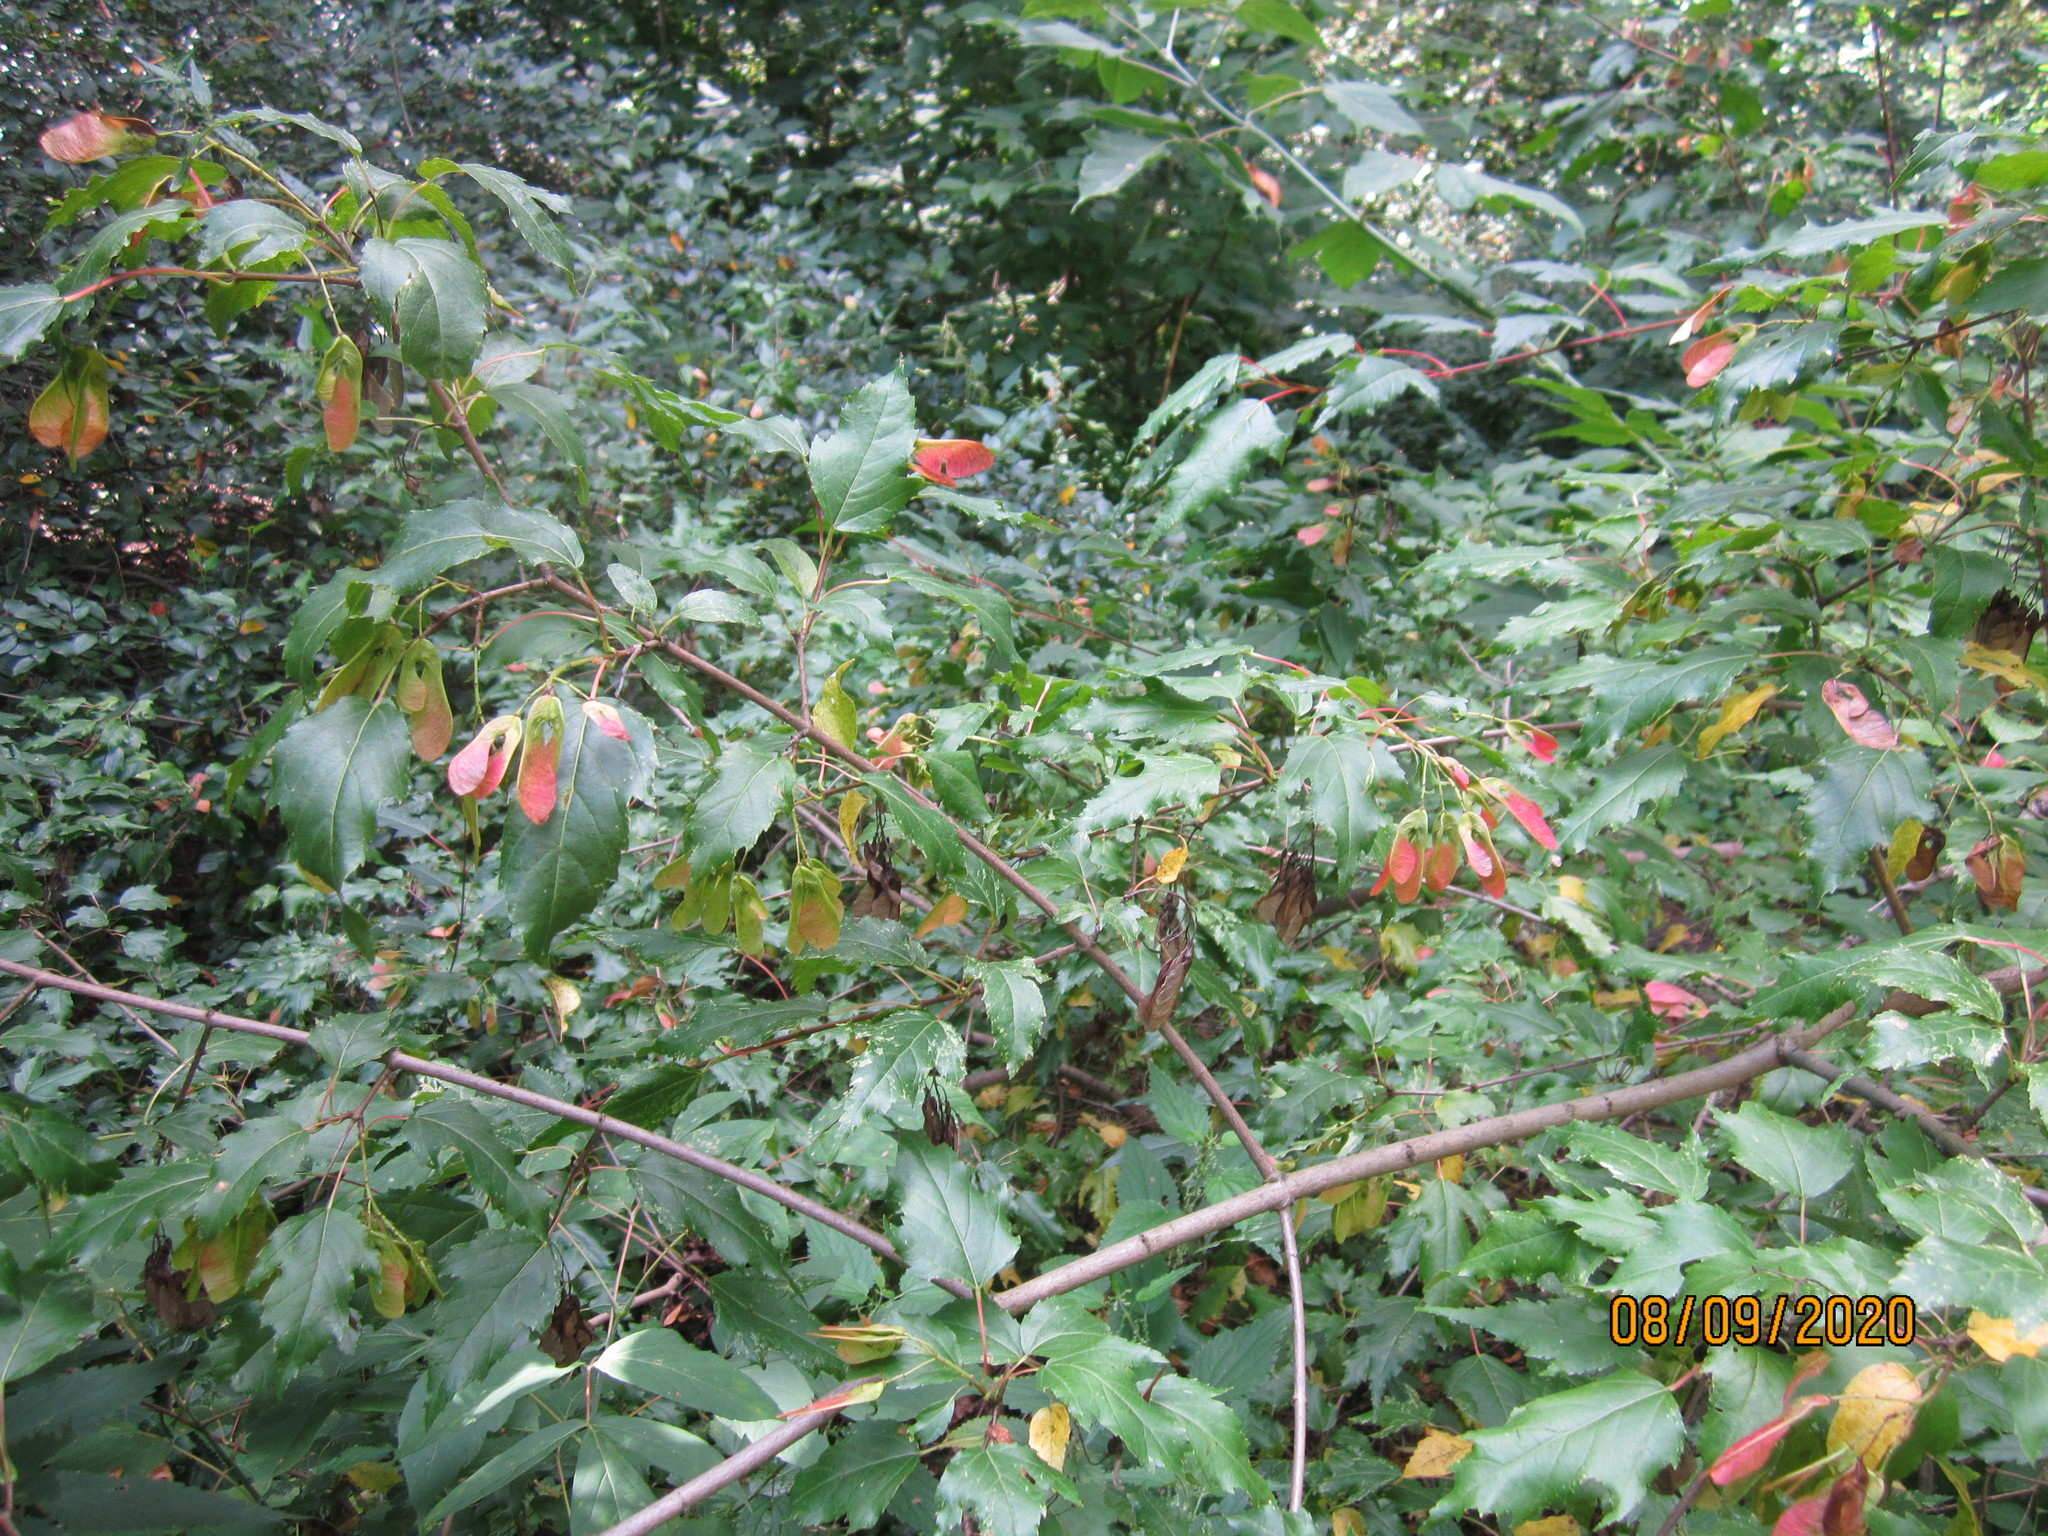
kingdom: Plantae
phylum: Tracheophyta
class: Magnoliopsida
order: Sapindales
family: Sapindaceae
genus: Acer
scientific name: Acer tataricum
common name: Tartar maple
